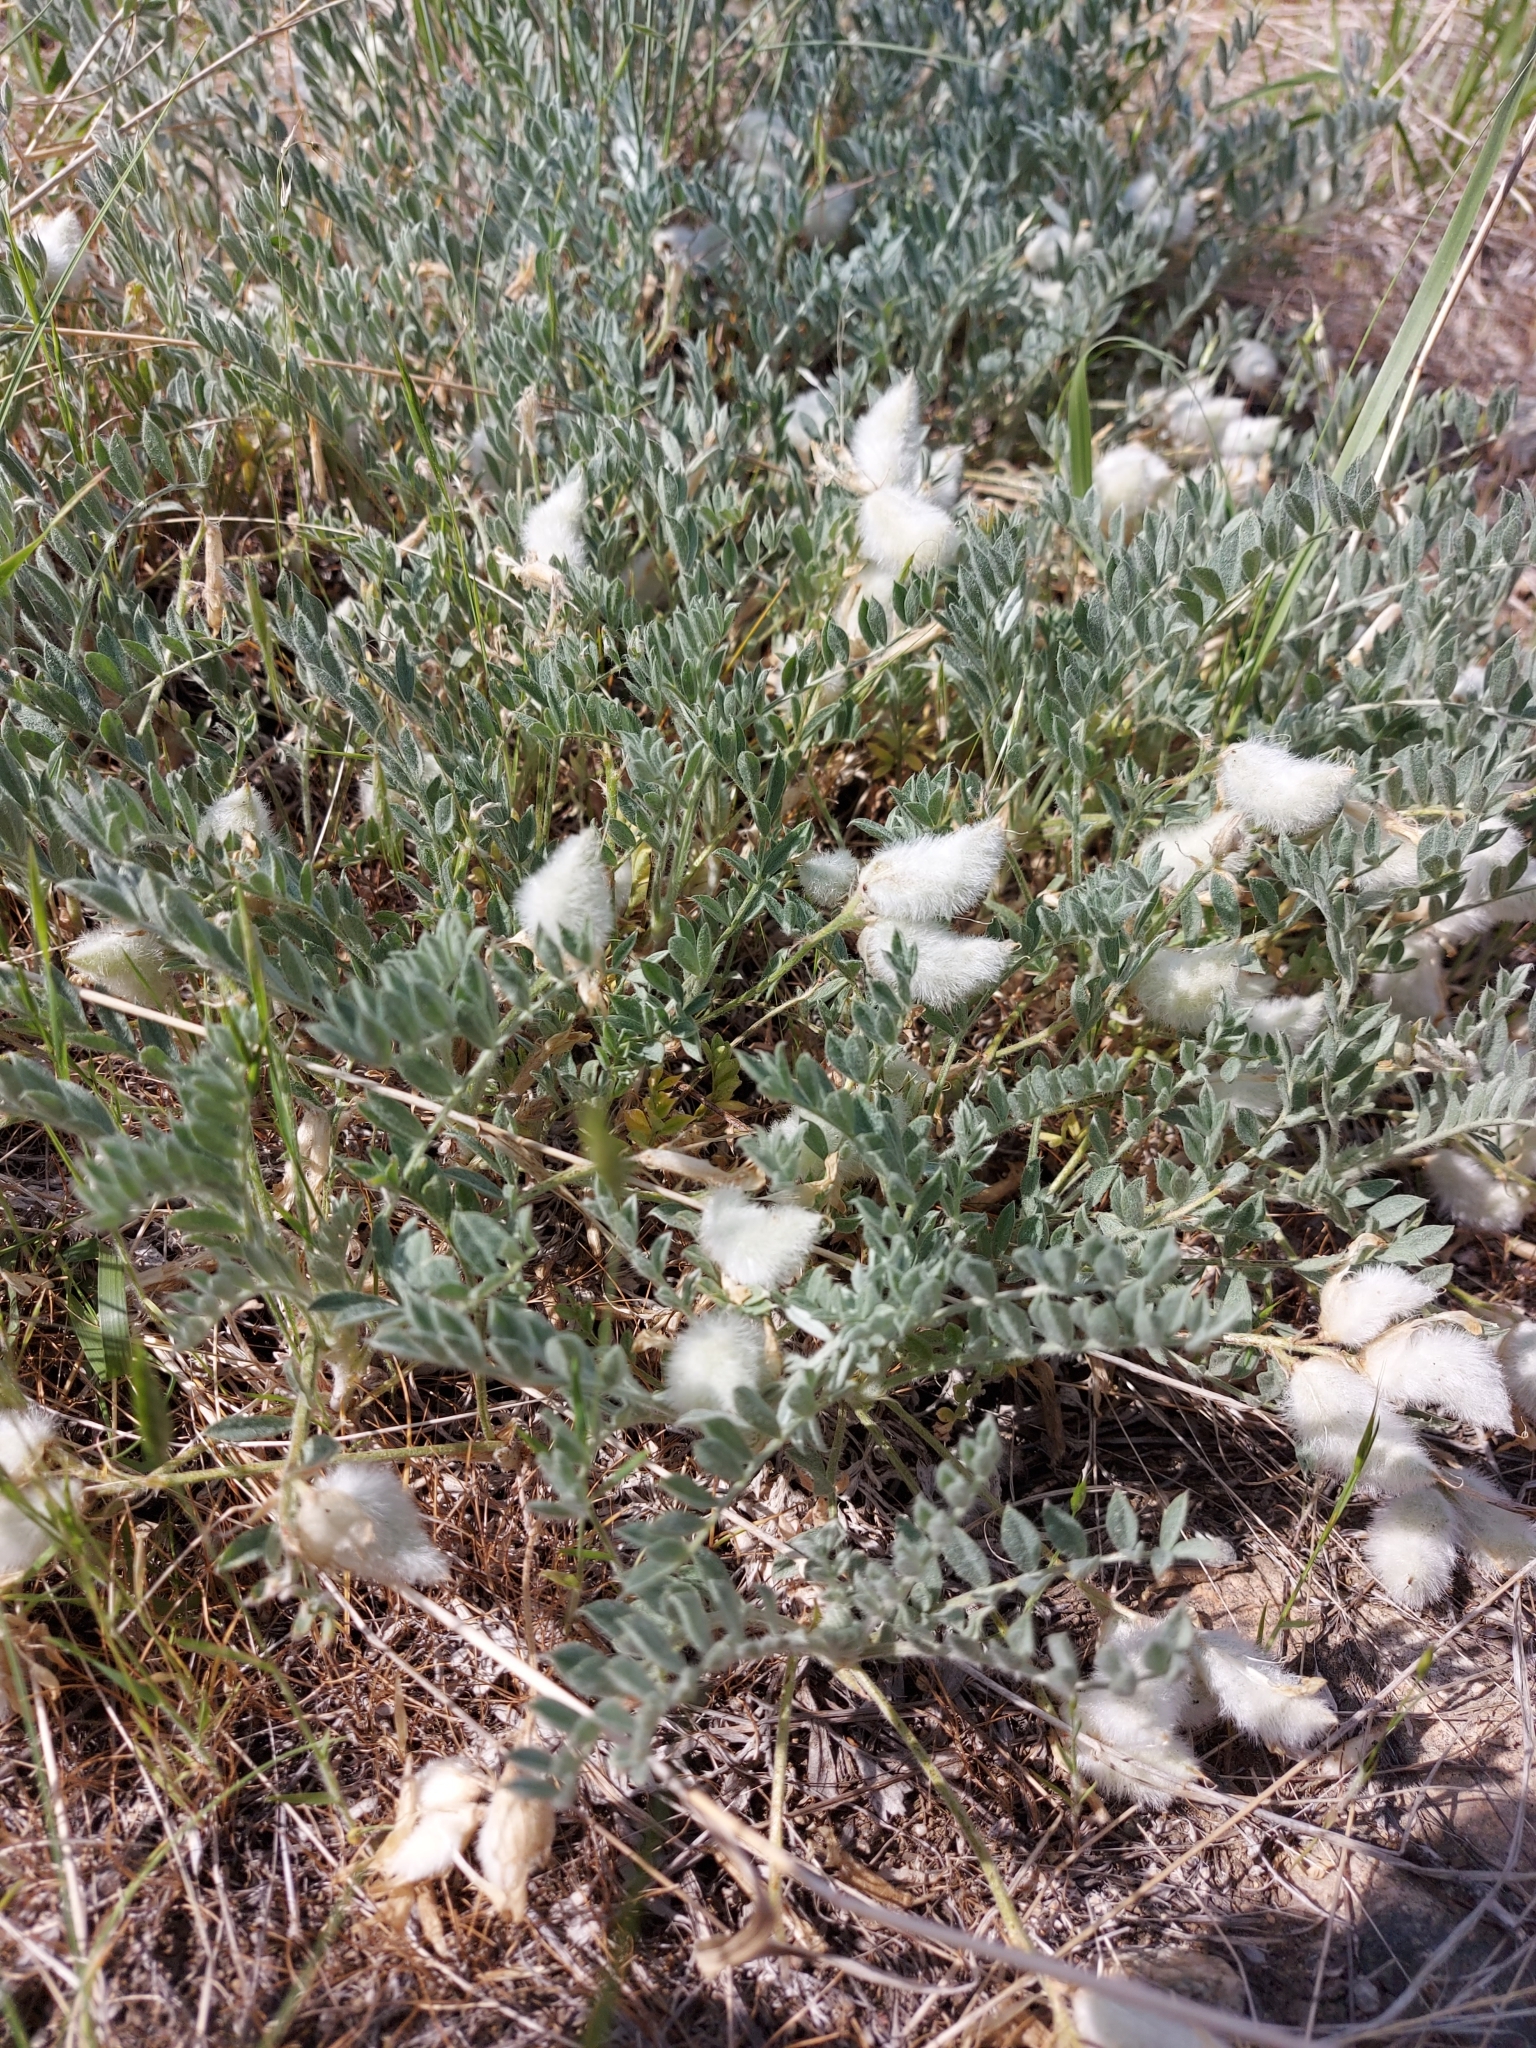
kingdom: Plantae
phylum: Tracheophyta
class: Magnoliopsida
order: Fabales
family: Fabaceae
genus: Astragalus
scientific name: Astragalus purshii
